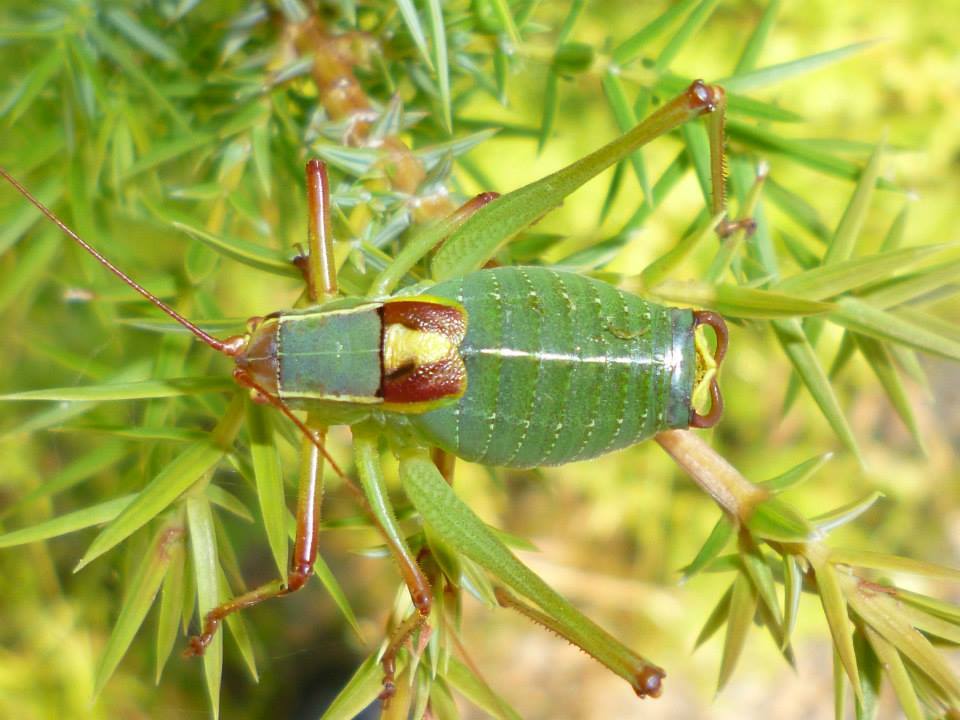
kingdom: Animalia
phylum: Arthropoda
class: Insecta
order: Orthoptera
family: Tettigoniidae
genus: Barbitistes
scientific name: Barbitistes yersini
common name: Balkan saw bush-cricket
